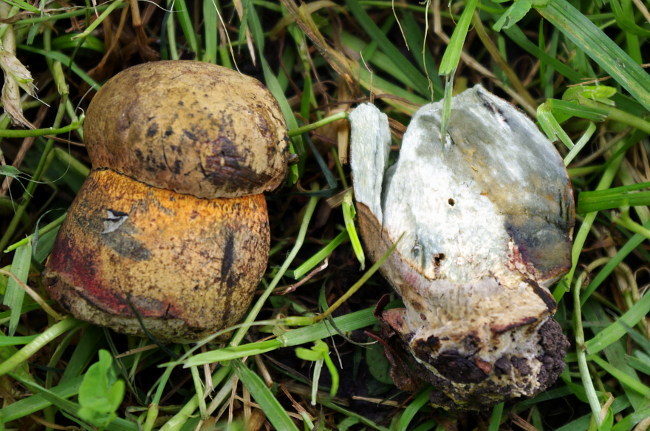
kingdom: Fungi
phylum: Basidiomycota
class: Agaricomycetes
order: Boletales
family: Boletaceae
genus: Suillellus
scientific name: Suillellus luridus
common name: Lurid bolete
